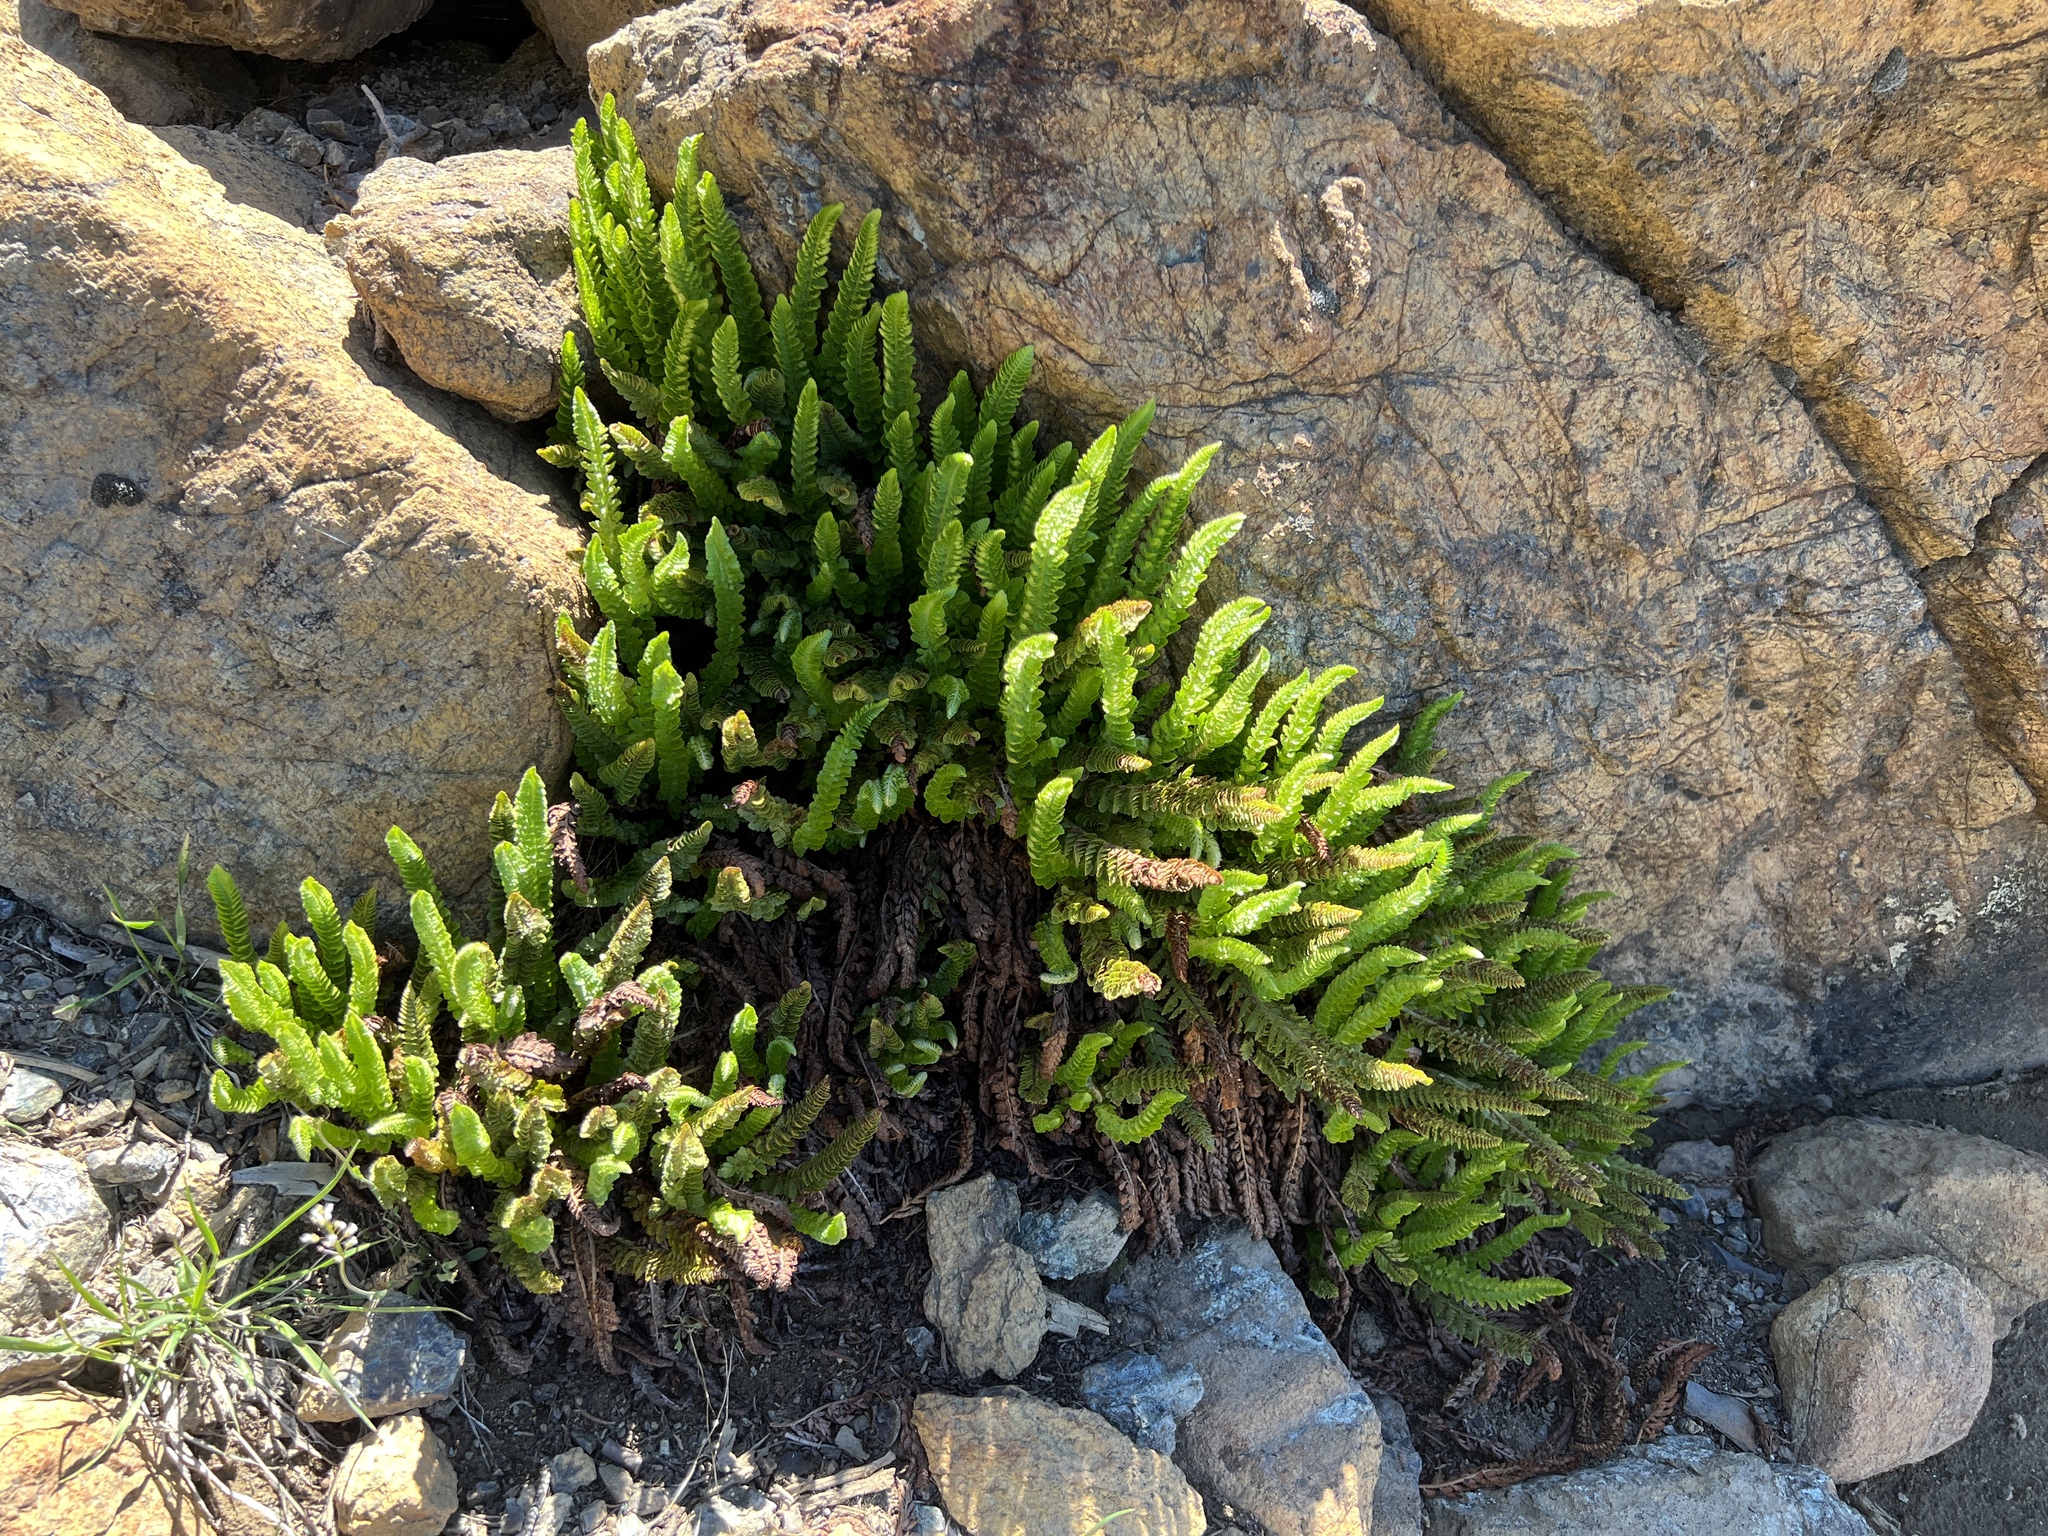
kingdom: Plantae
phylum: Tracheophyta
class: Polypodiopsida
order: Polypodiales
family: Dryopteridaceae
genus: Polystichum
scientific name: Polystichum lemmonii
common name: Lemmon's holly fern
